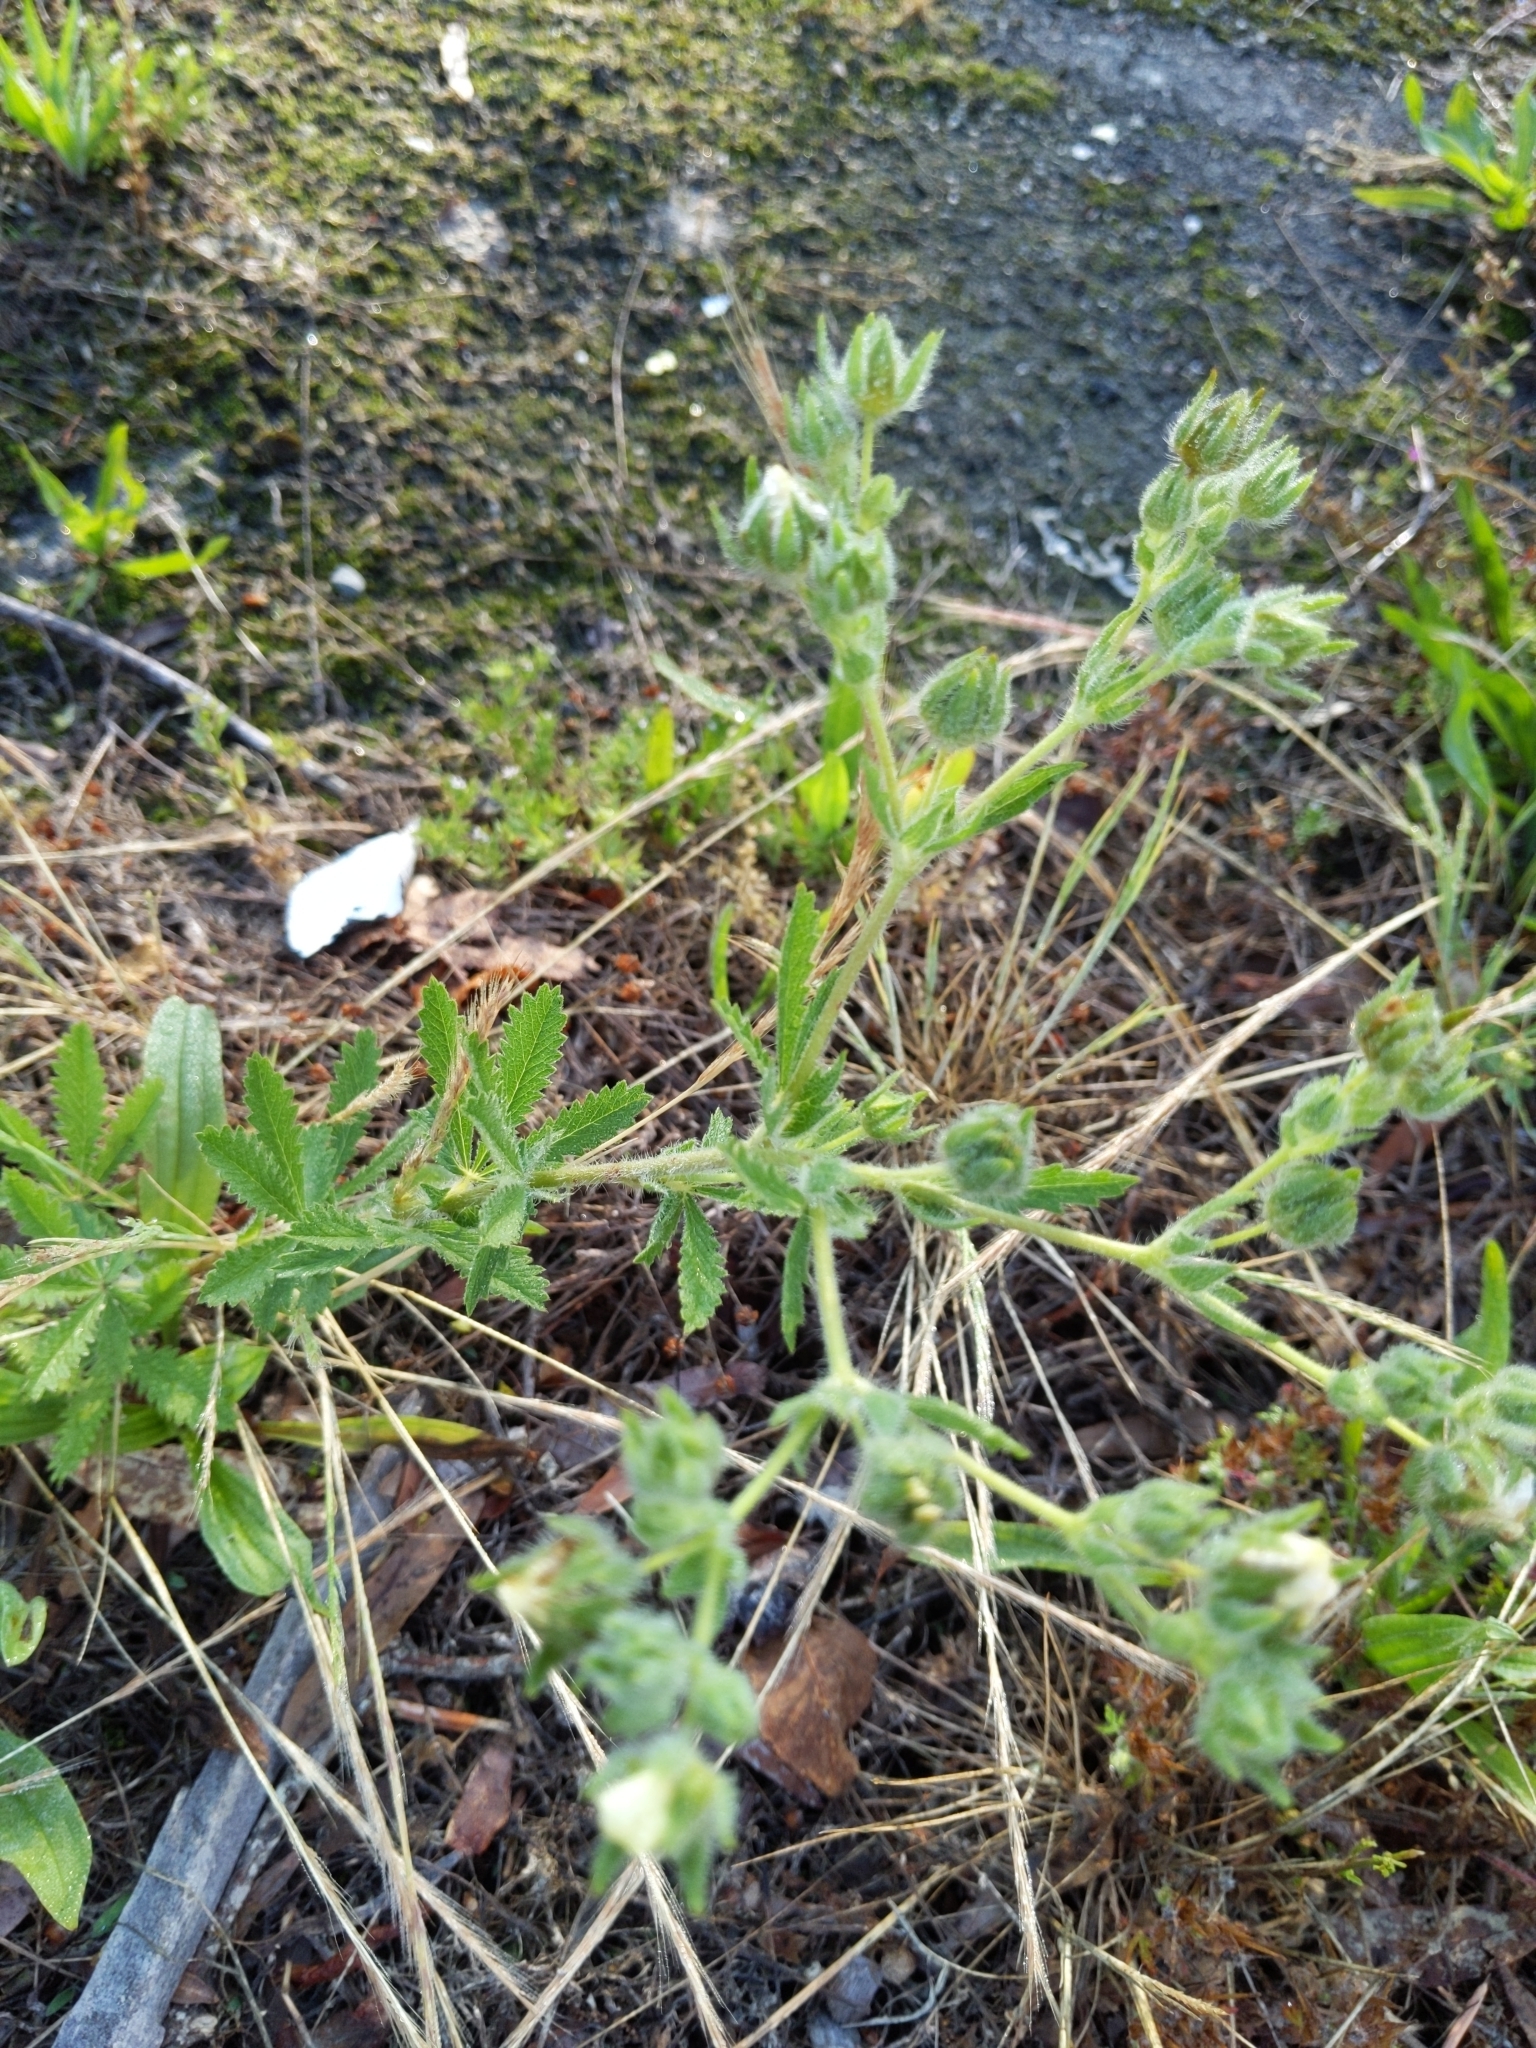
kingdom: Plantae
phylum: Tracheophyta
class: Magnoliopsida
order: Rosales
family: Rosaceae
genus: Potentilla
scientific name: Potentilla recta
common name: Sulphur cinquefoil
